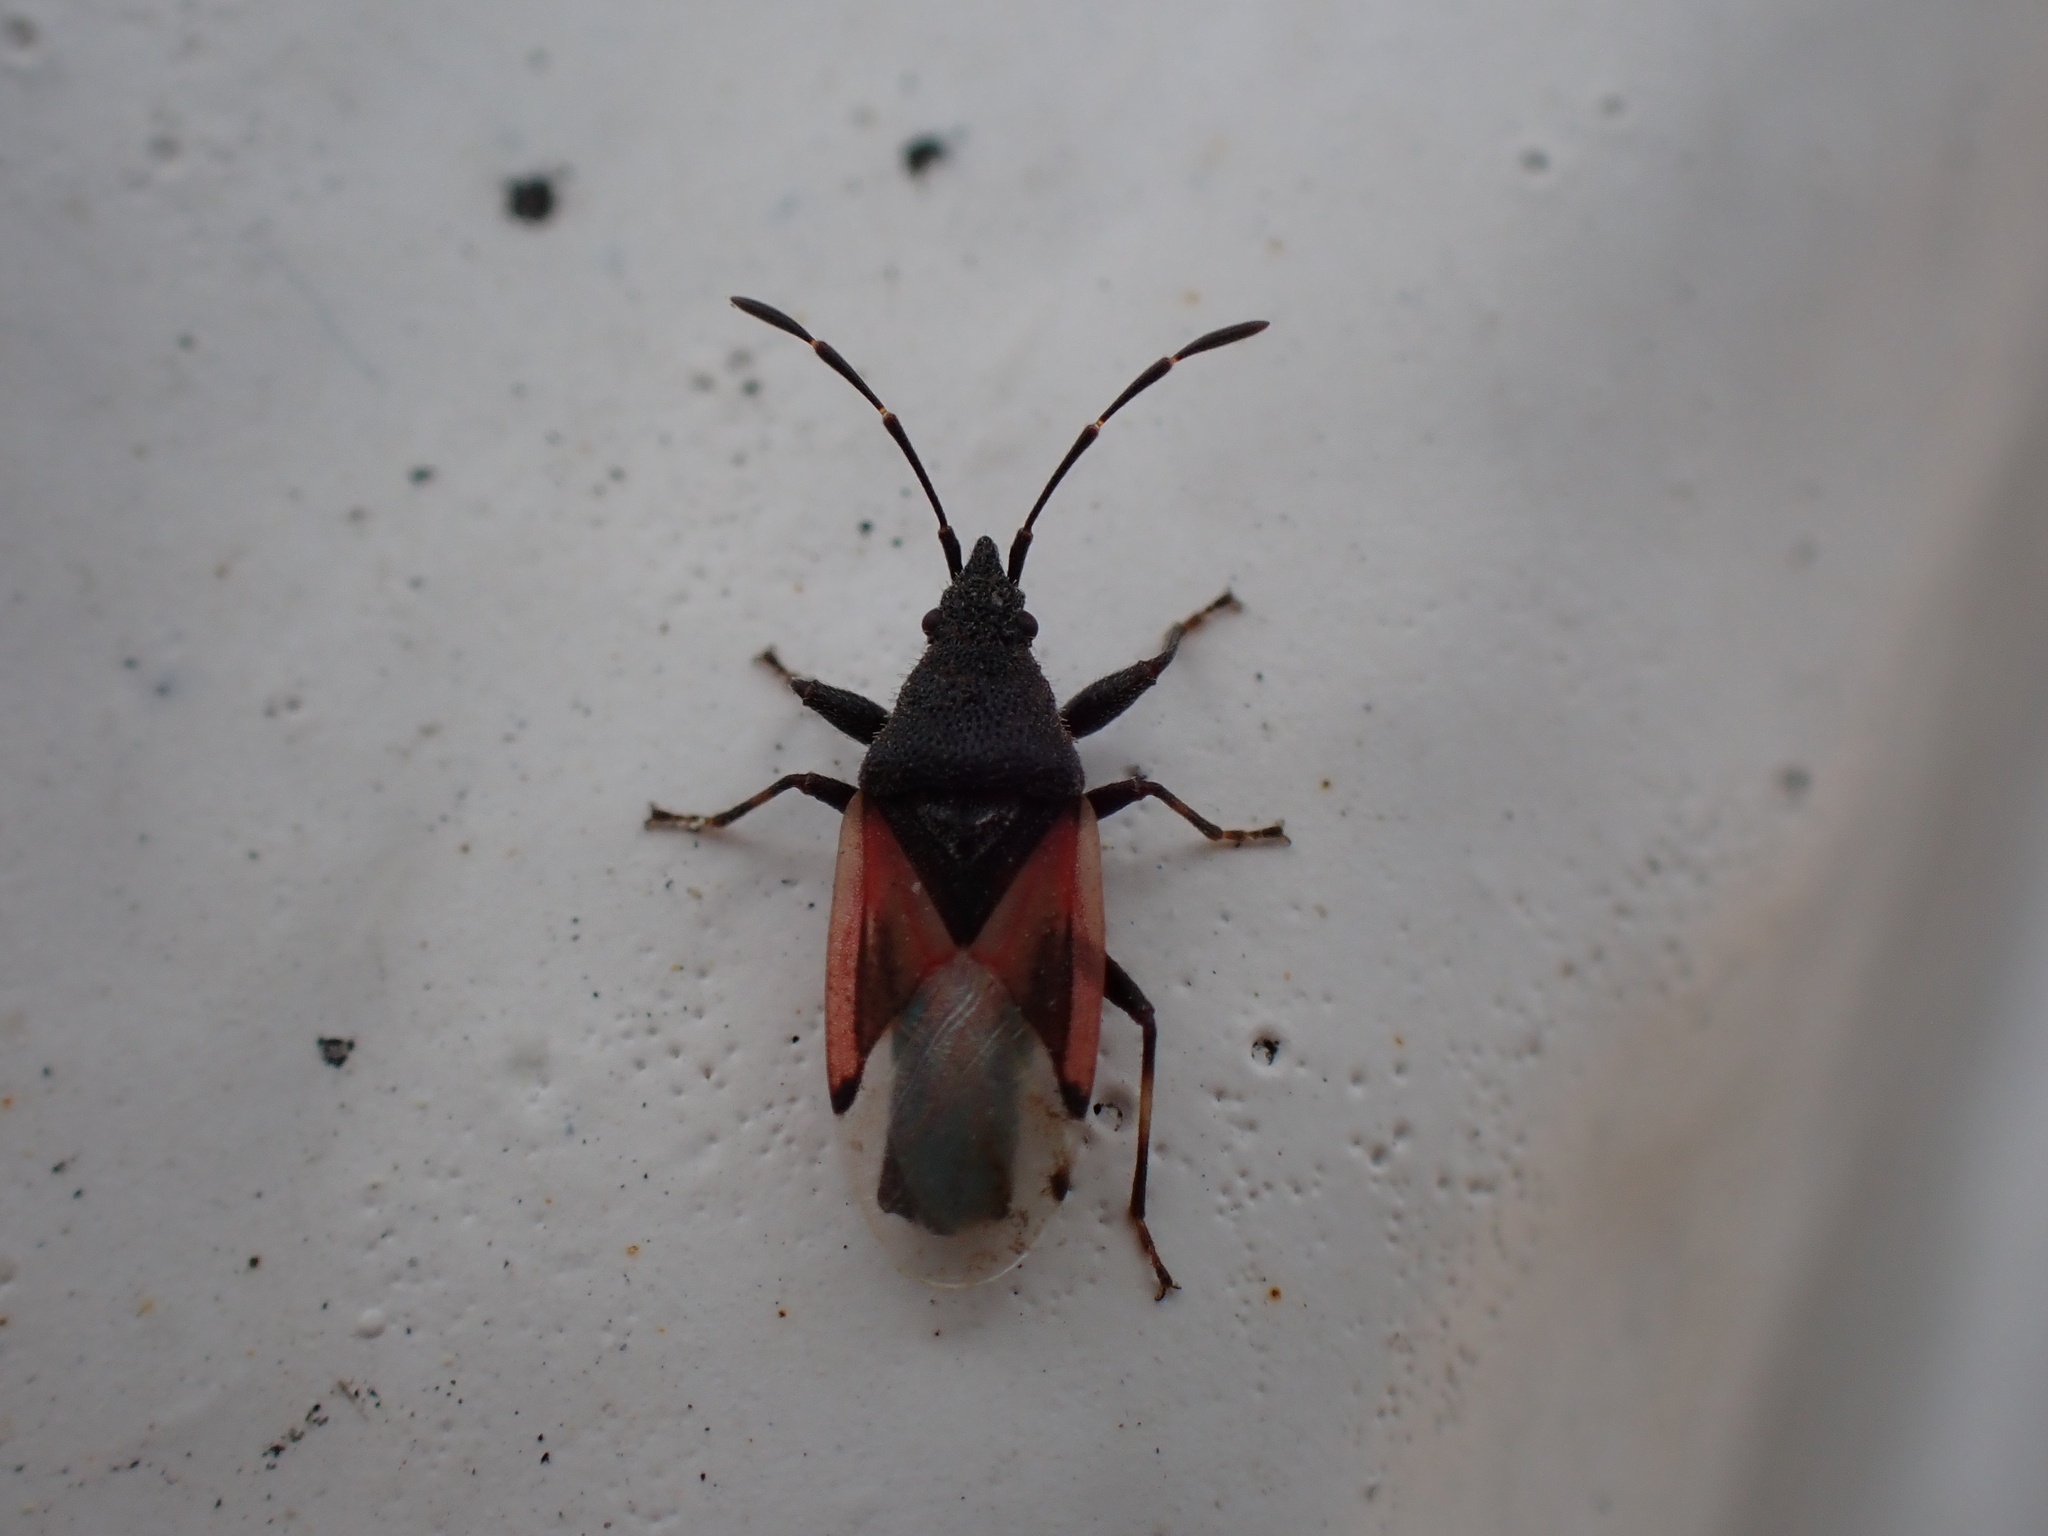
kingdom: Animalia
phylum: Arthropoda
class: Insecta
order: Hemiptera
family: Oxycarenidae
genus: Oxycarenus
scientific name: Oxycarenus lavaterae
